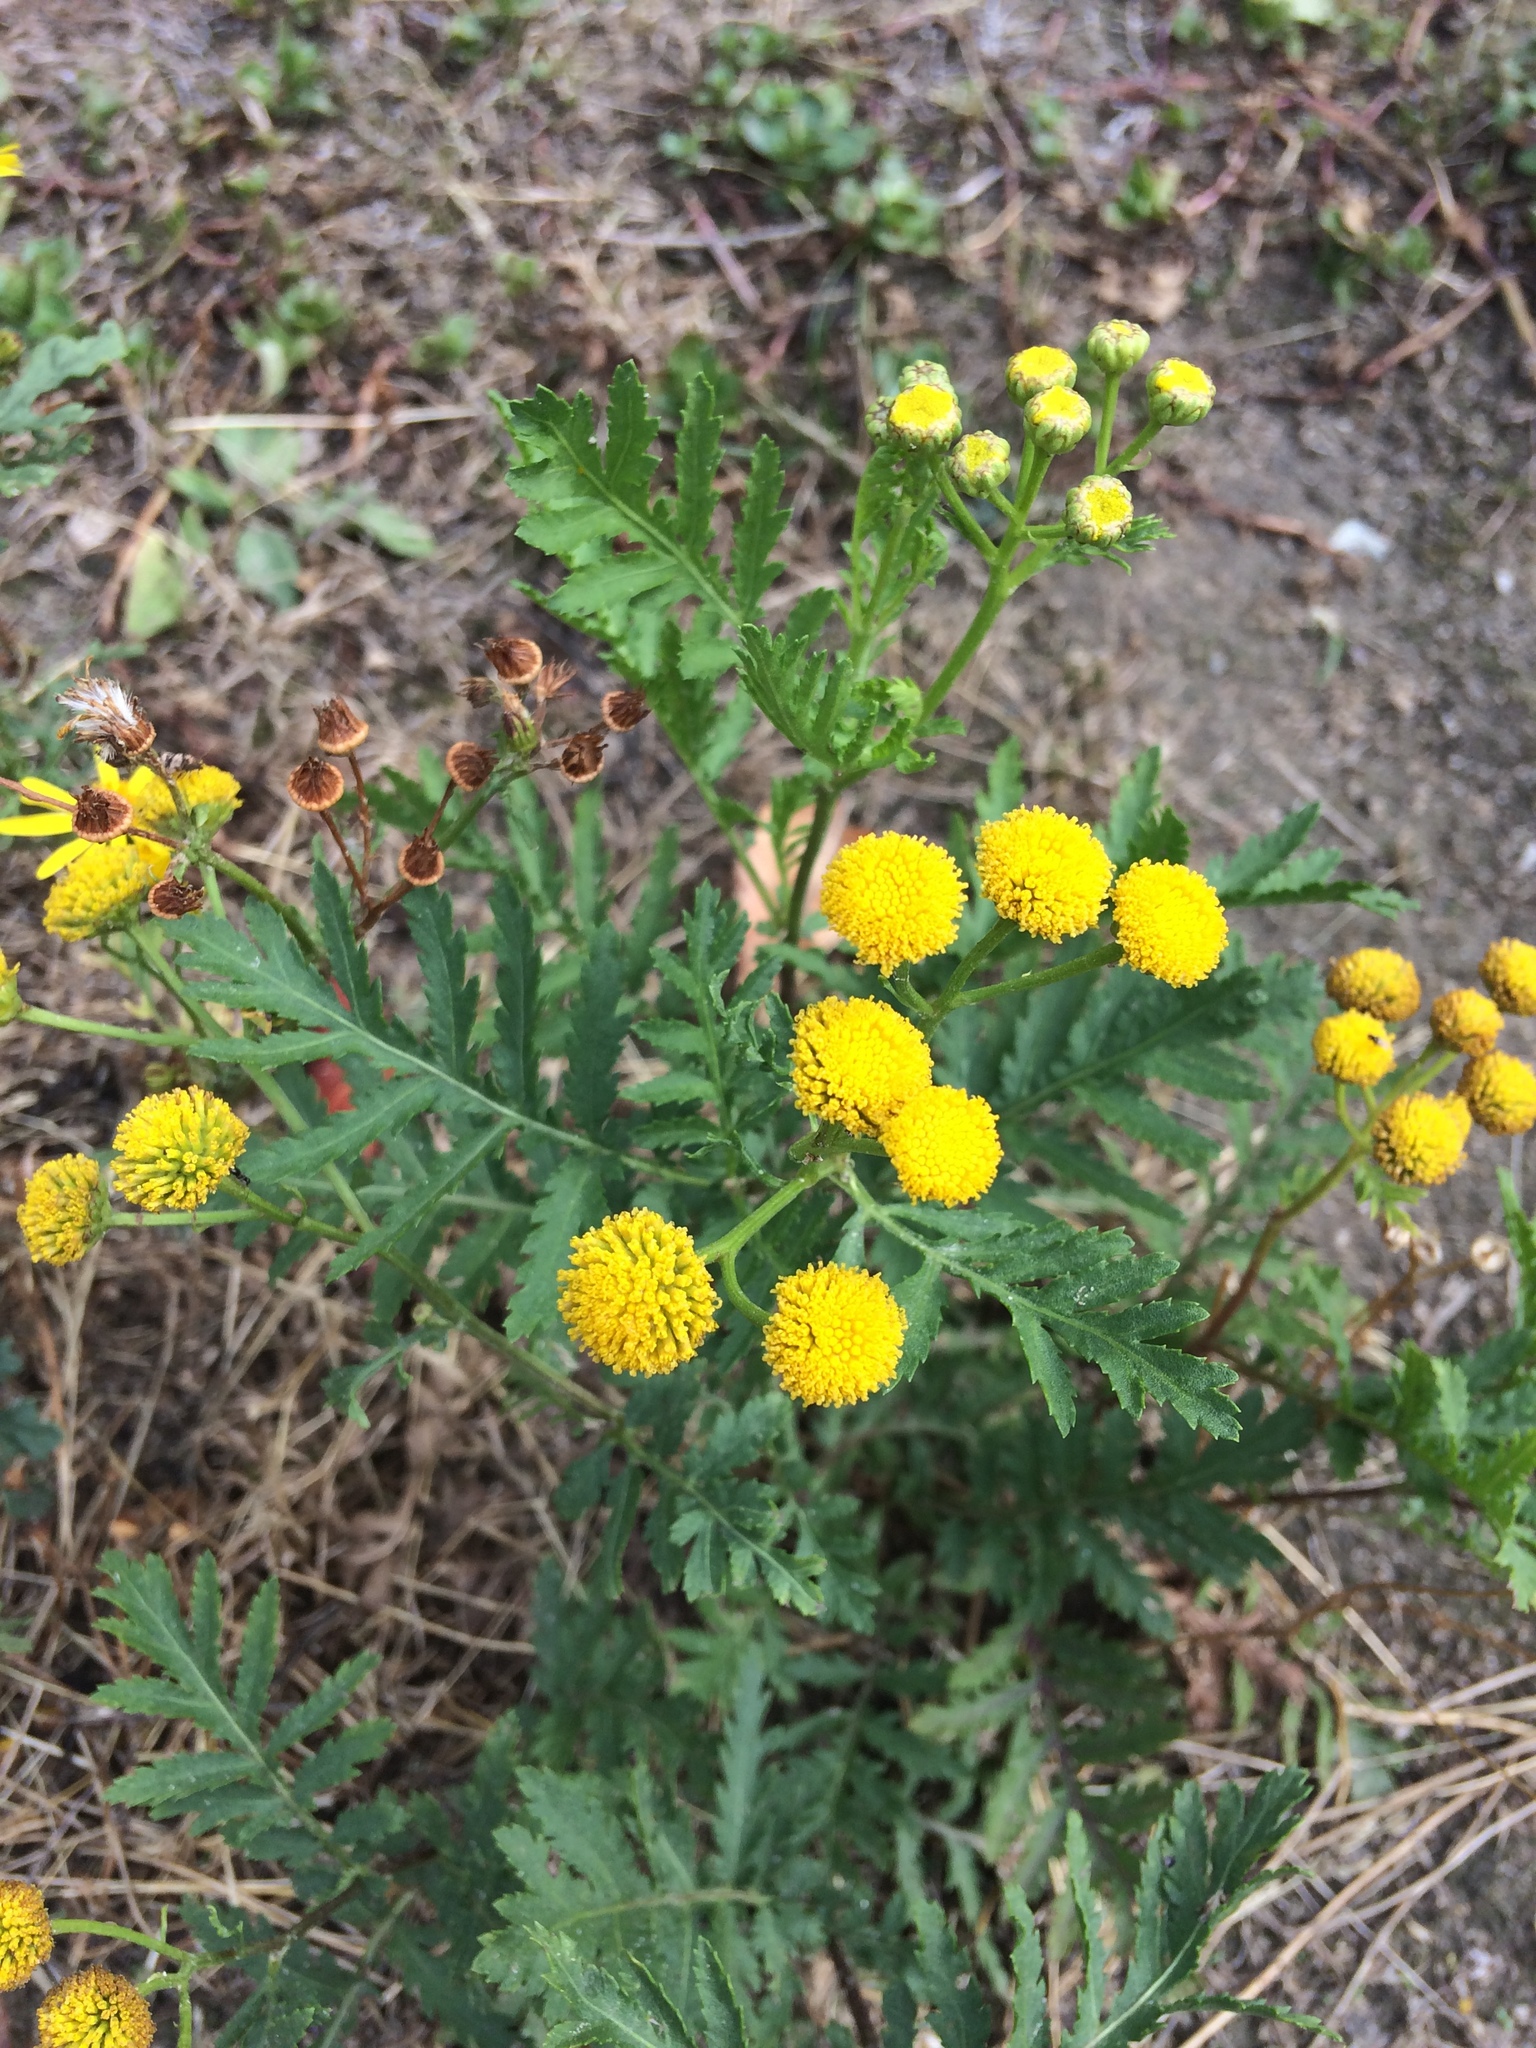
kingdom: Plantae
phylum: Tracheophyta
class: Magnoliopsida
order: Asterales
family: Asteraceae
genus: Tanacetum
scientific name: Tanacetum vulgare
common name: Common tansy
